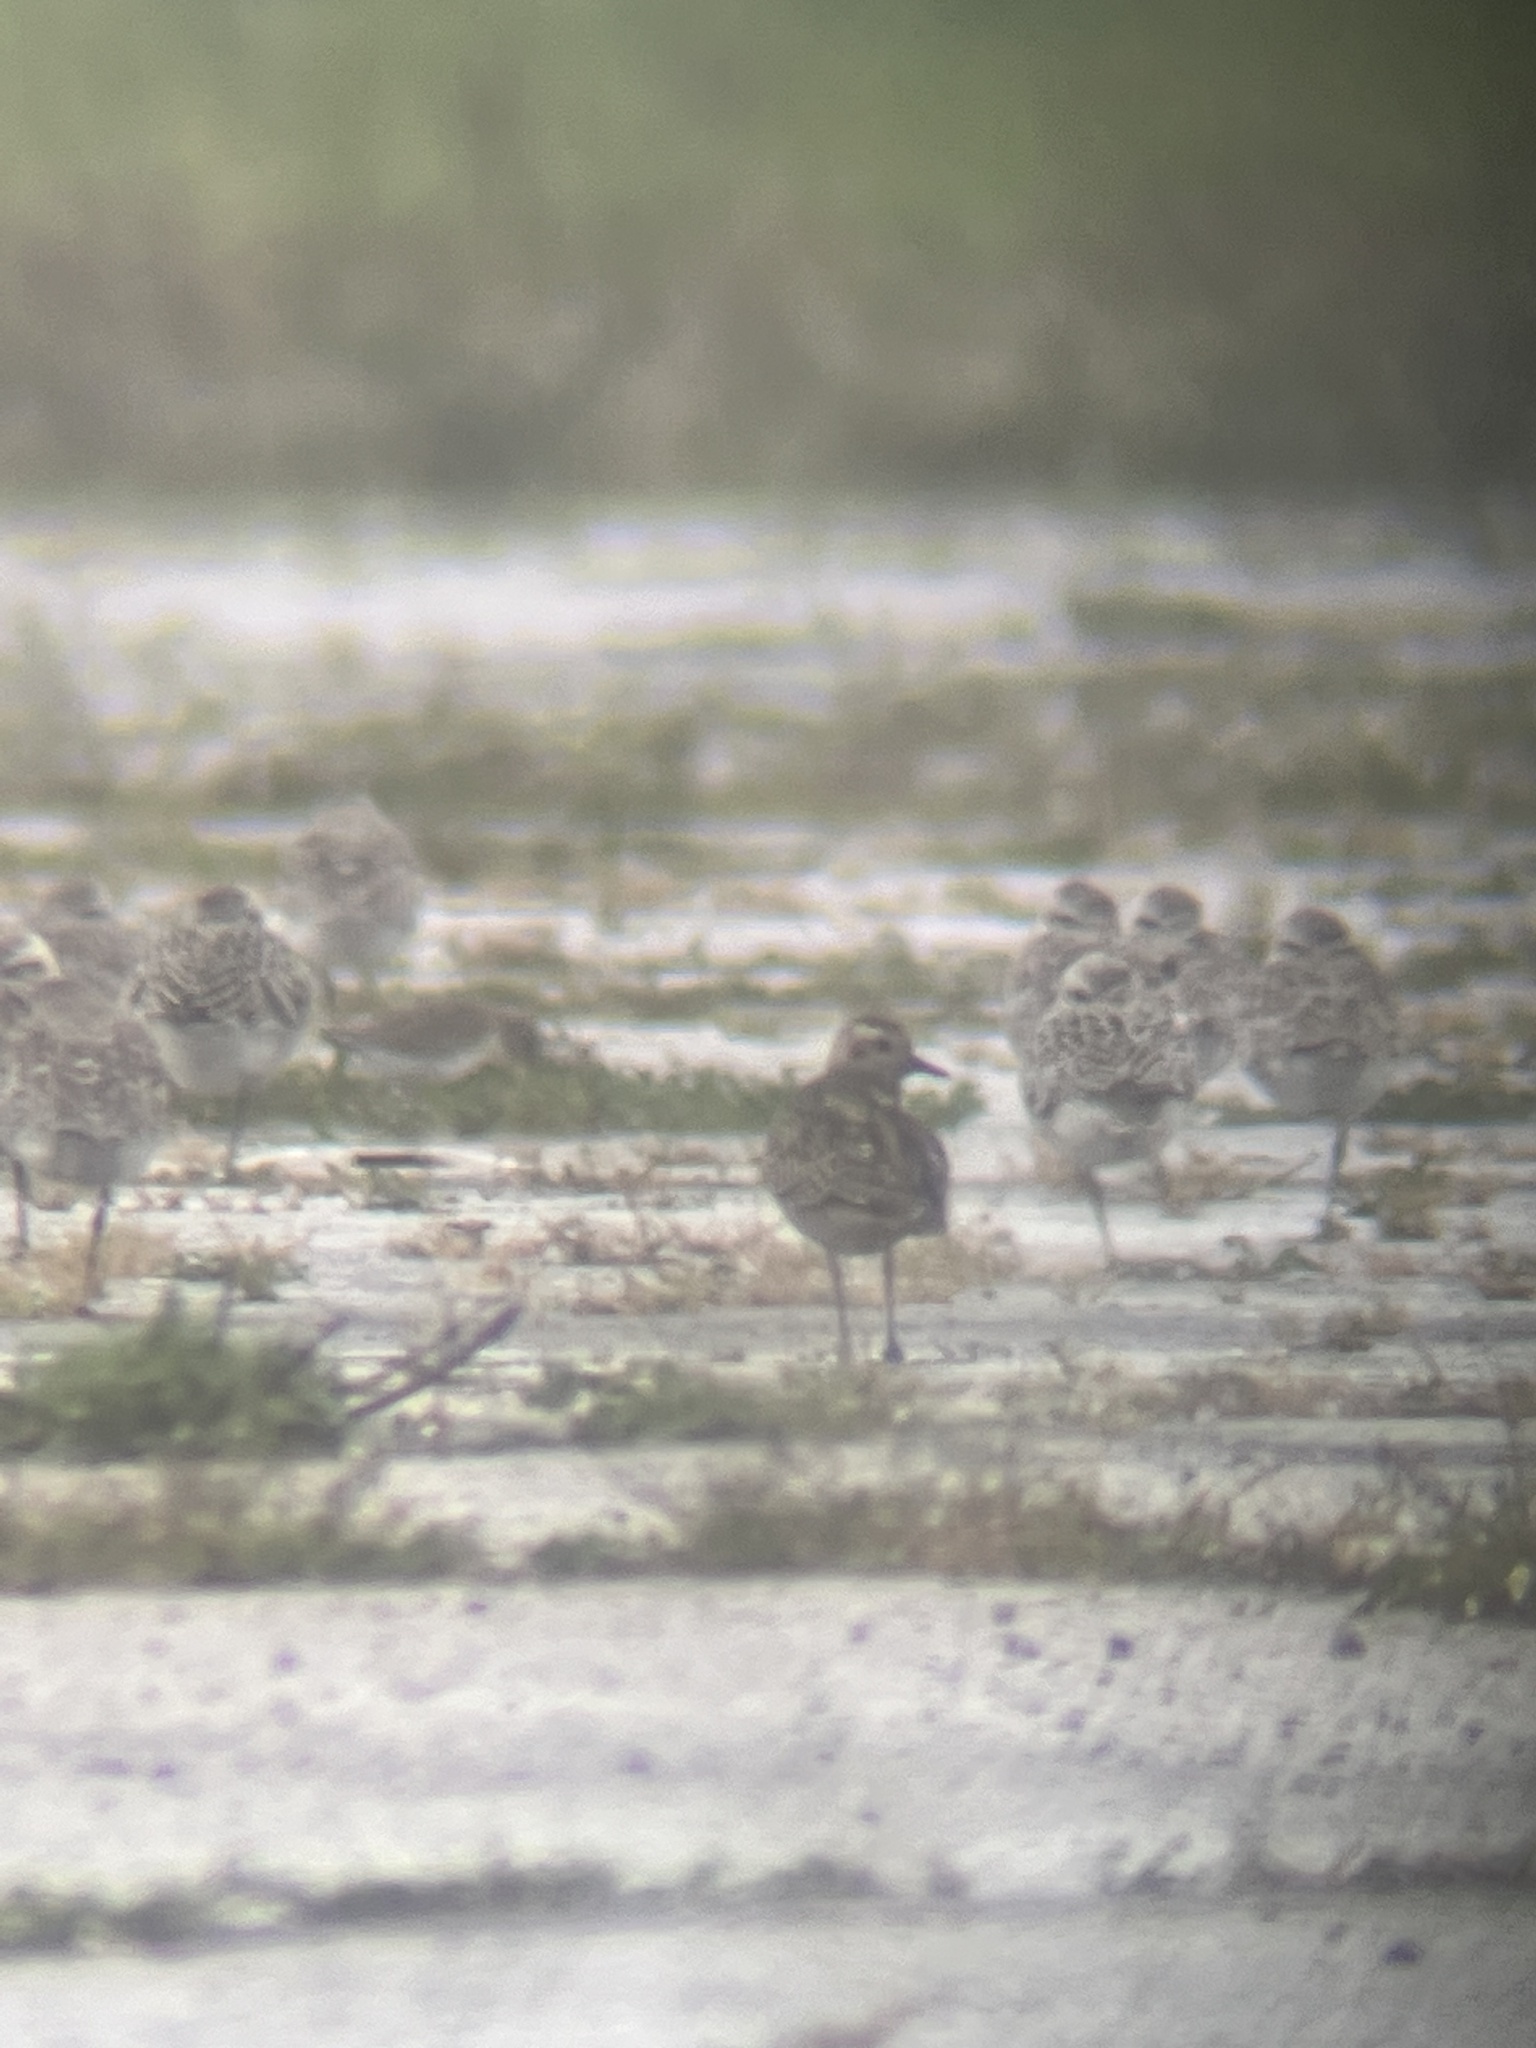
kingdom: Animalia
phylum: Chordata
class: Aves
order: Charadriiformes
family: Charadriidae
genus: Pluvialis
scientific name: Pluvialis dominica
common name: American golden plover
